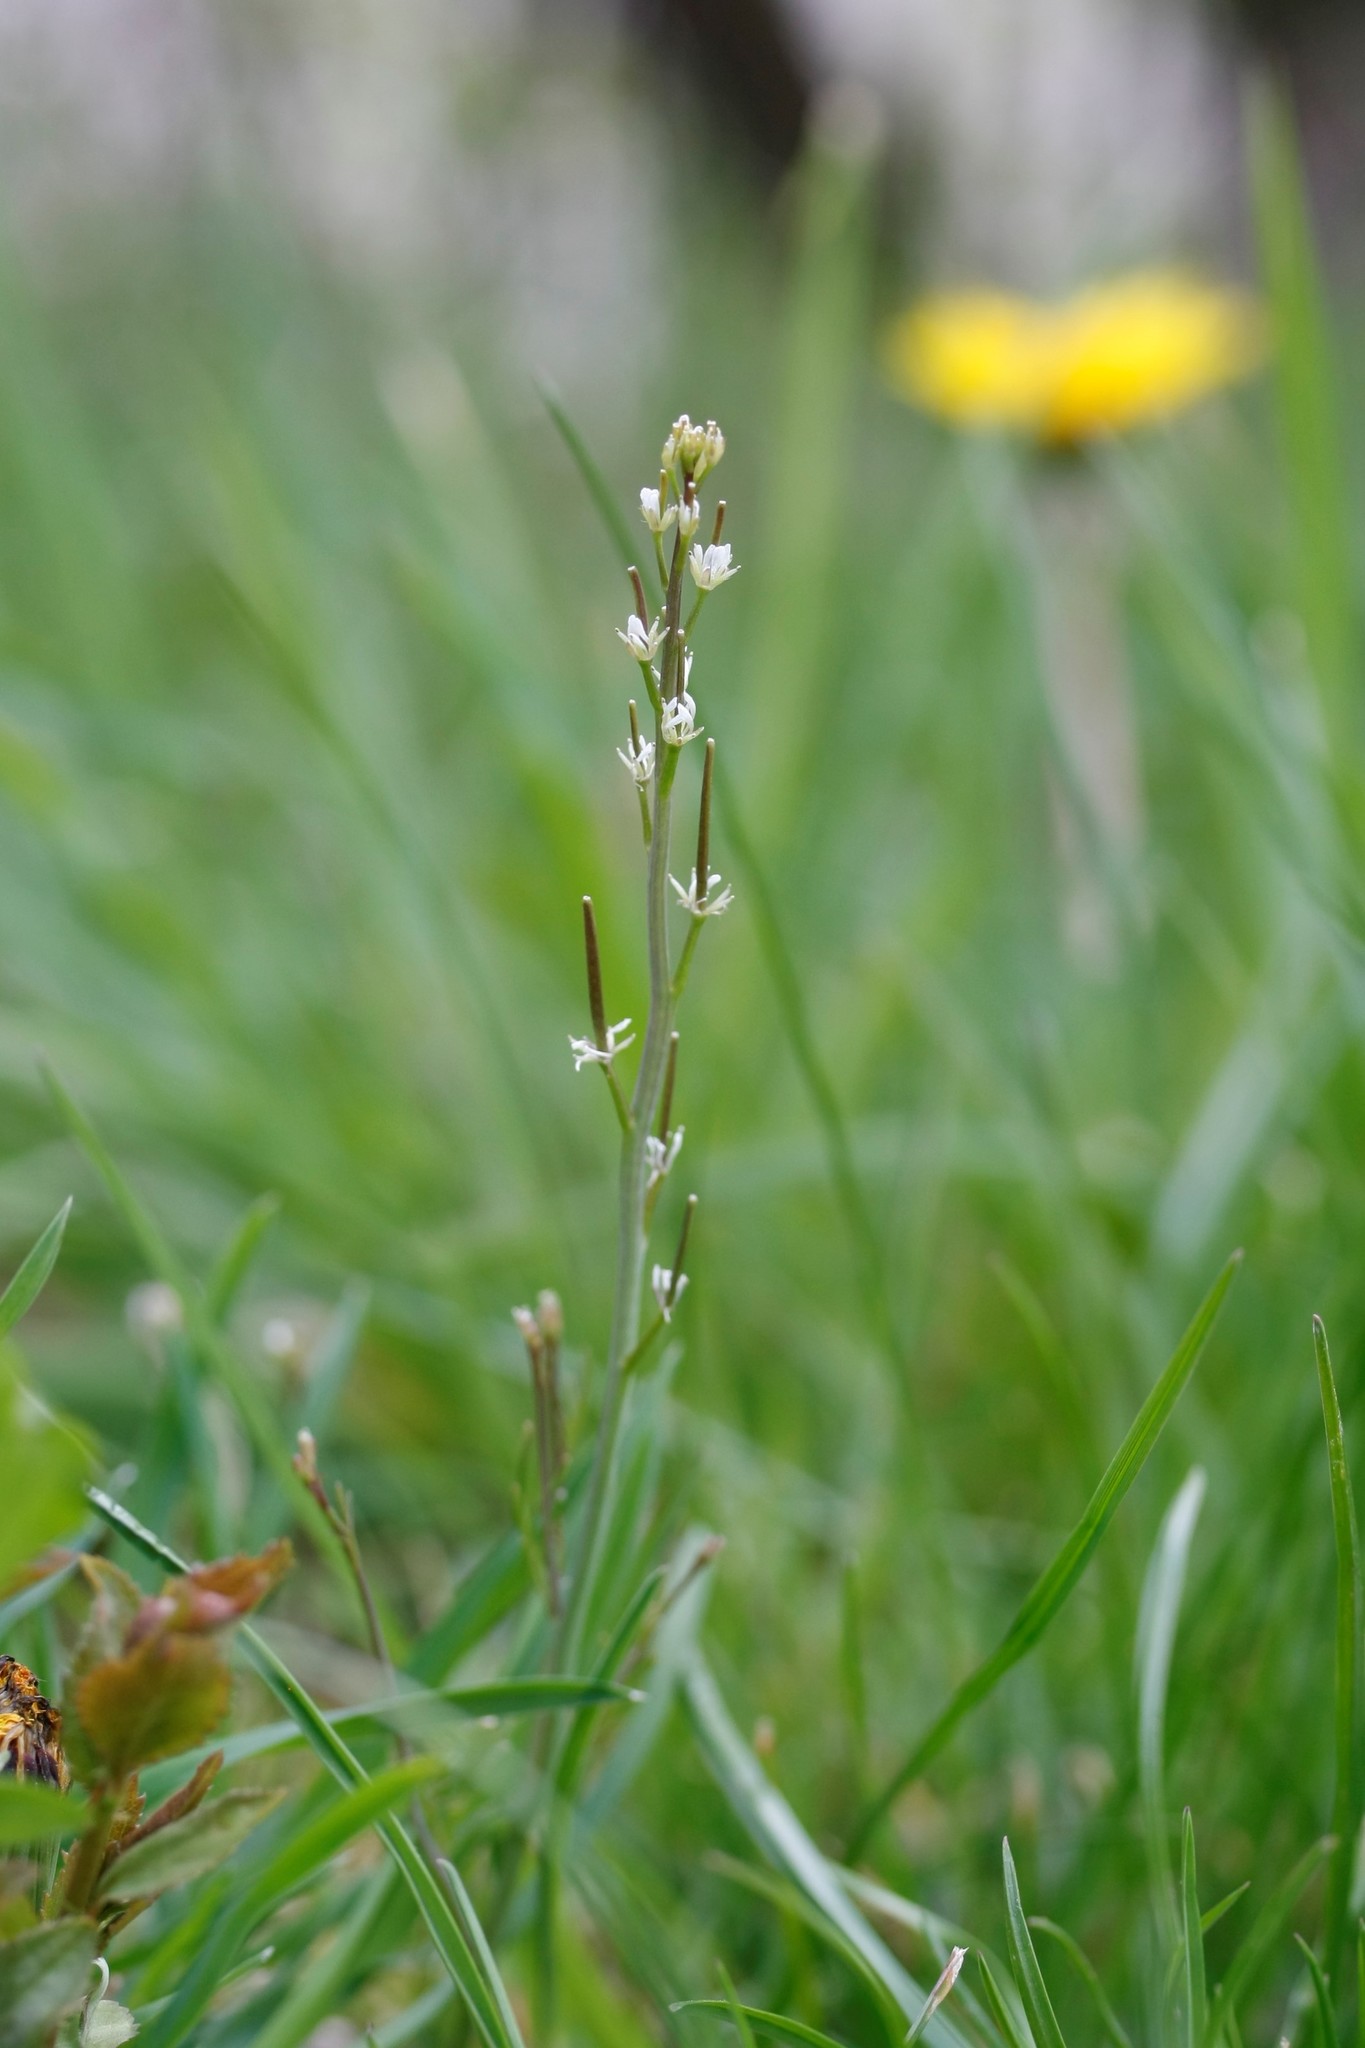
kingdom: Plantae
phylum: Tracheophyta
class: Magnoliopsida
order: Brassicales
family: Brassicaceae
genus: Cardamine
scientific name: Cardamine hirsuta
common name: Hairy bittercress
